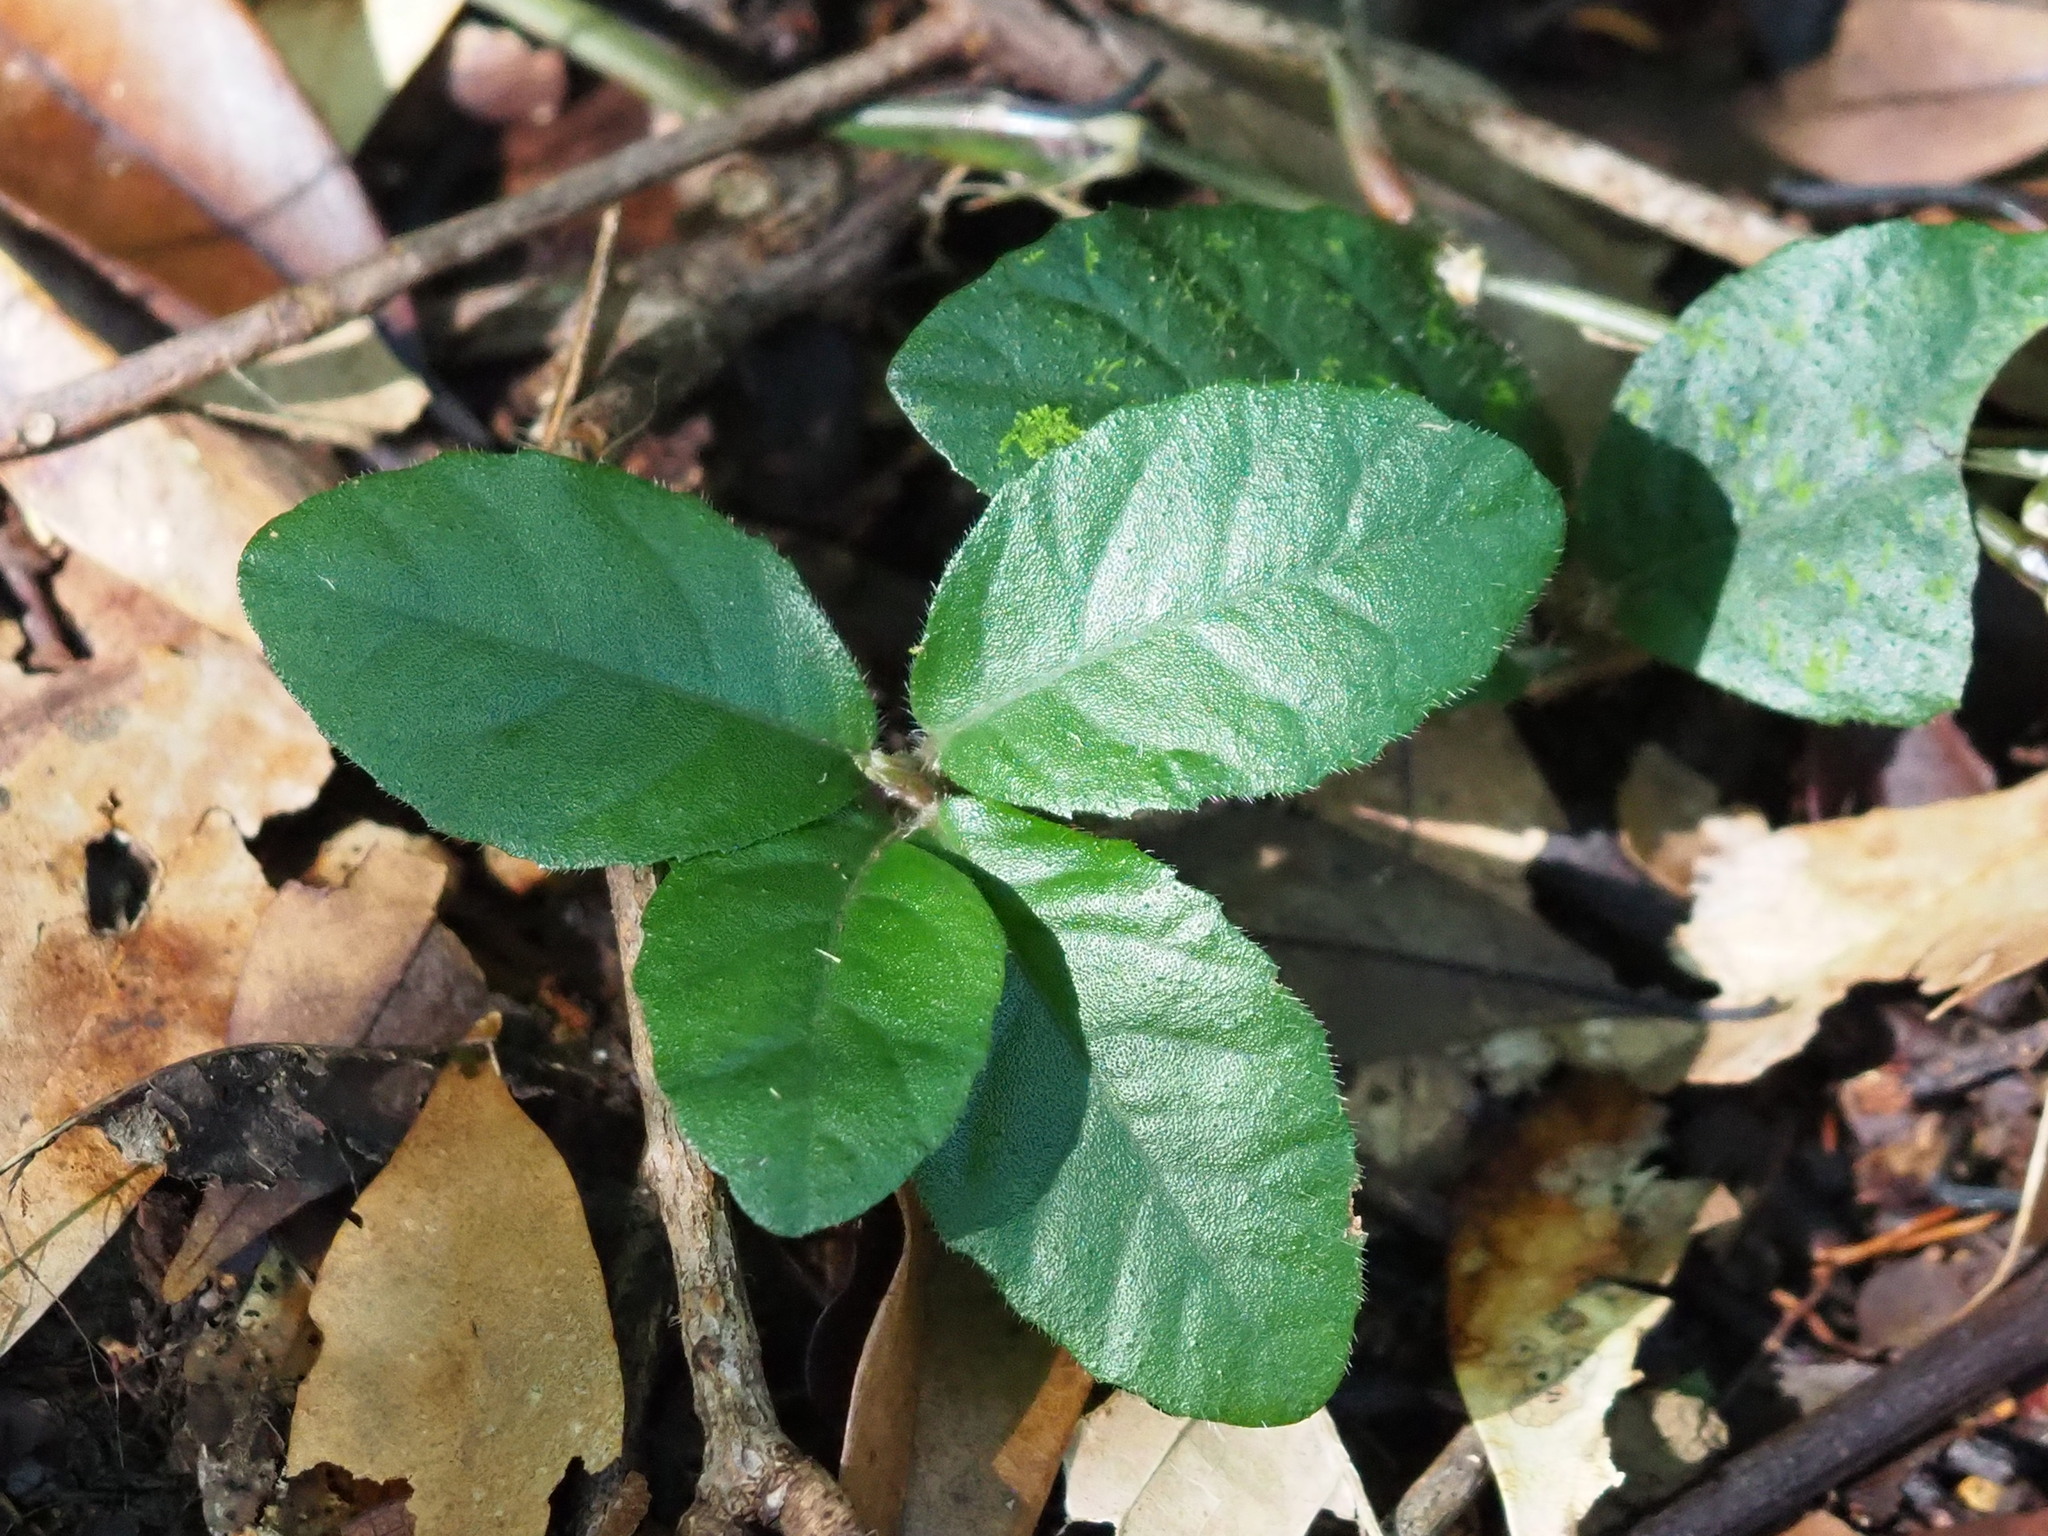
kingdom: Plantae
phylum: Tracheophyta
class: Magnoliopsida
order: Ericales
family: Primulaceae
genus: Ardisia
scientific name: Ardisia pusilla
